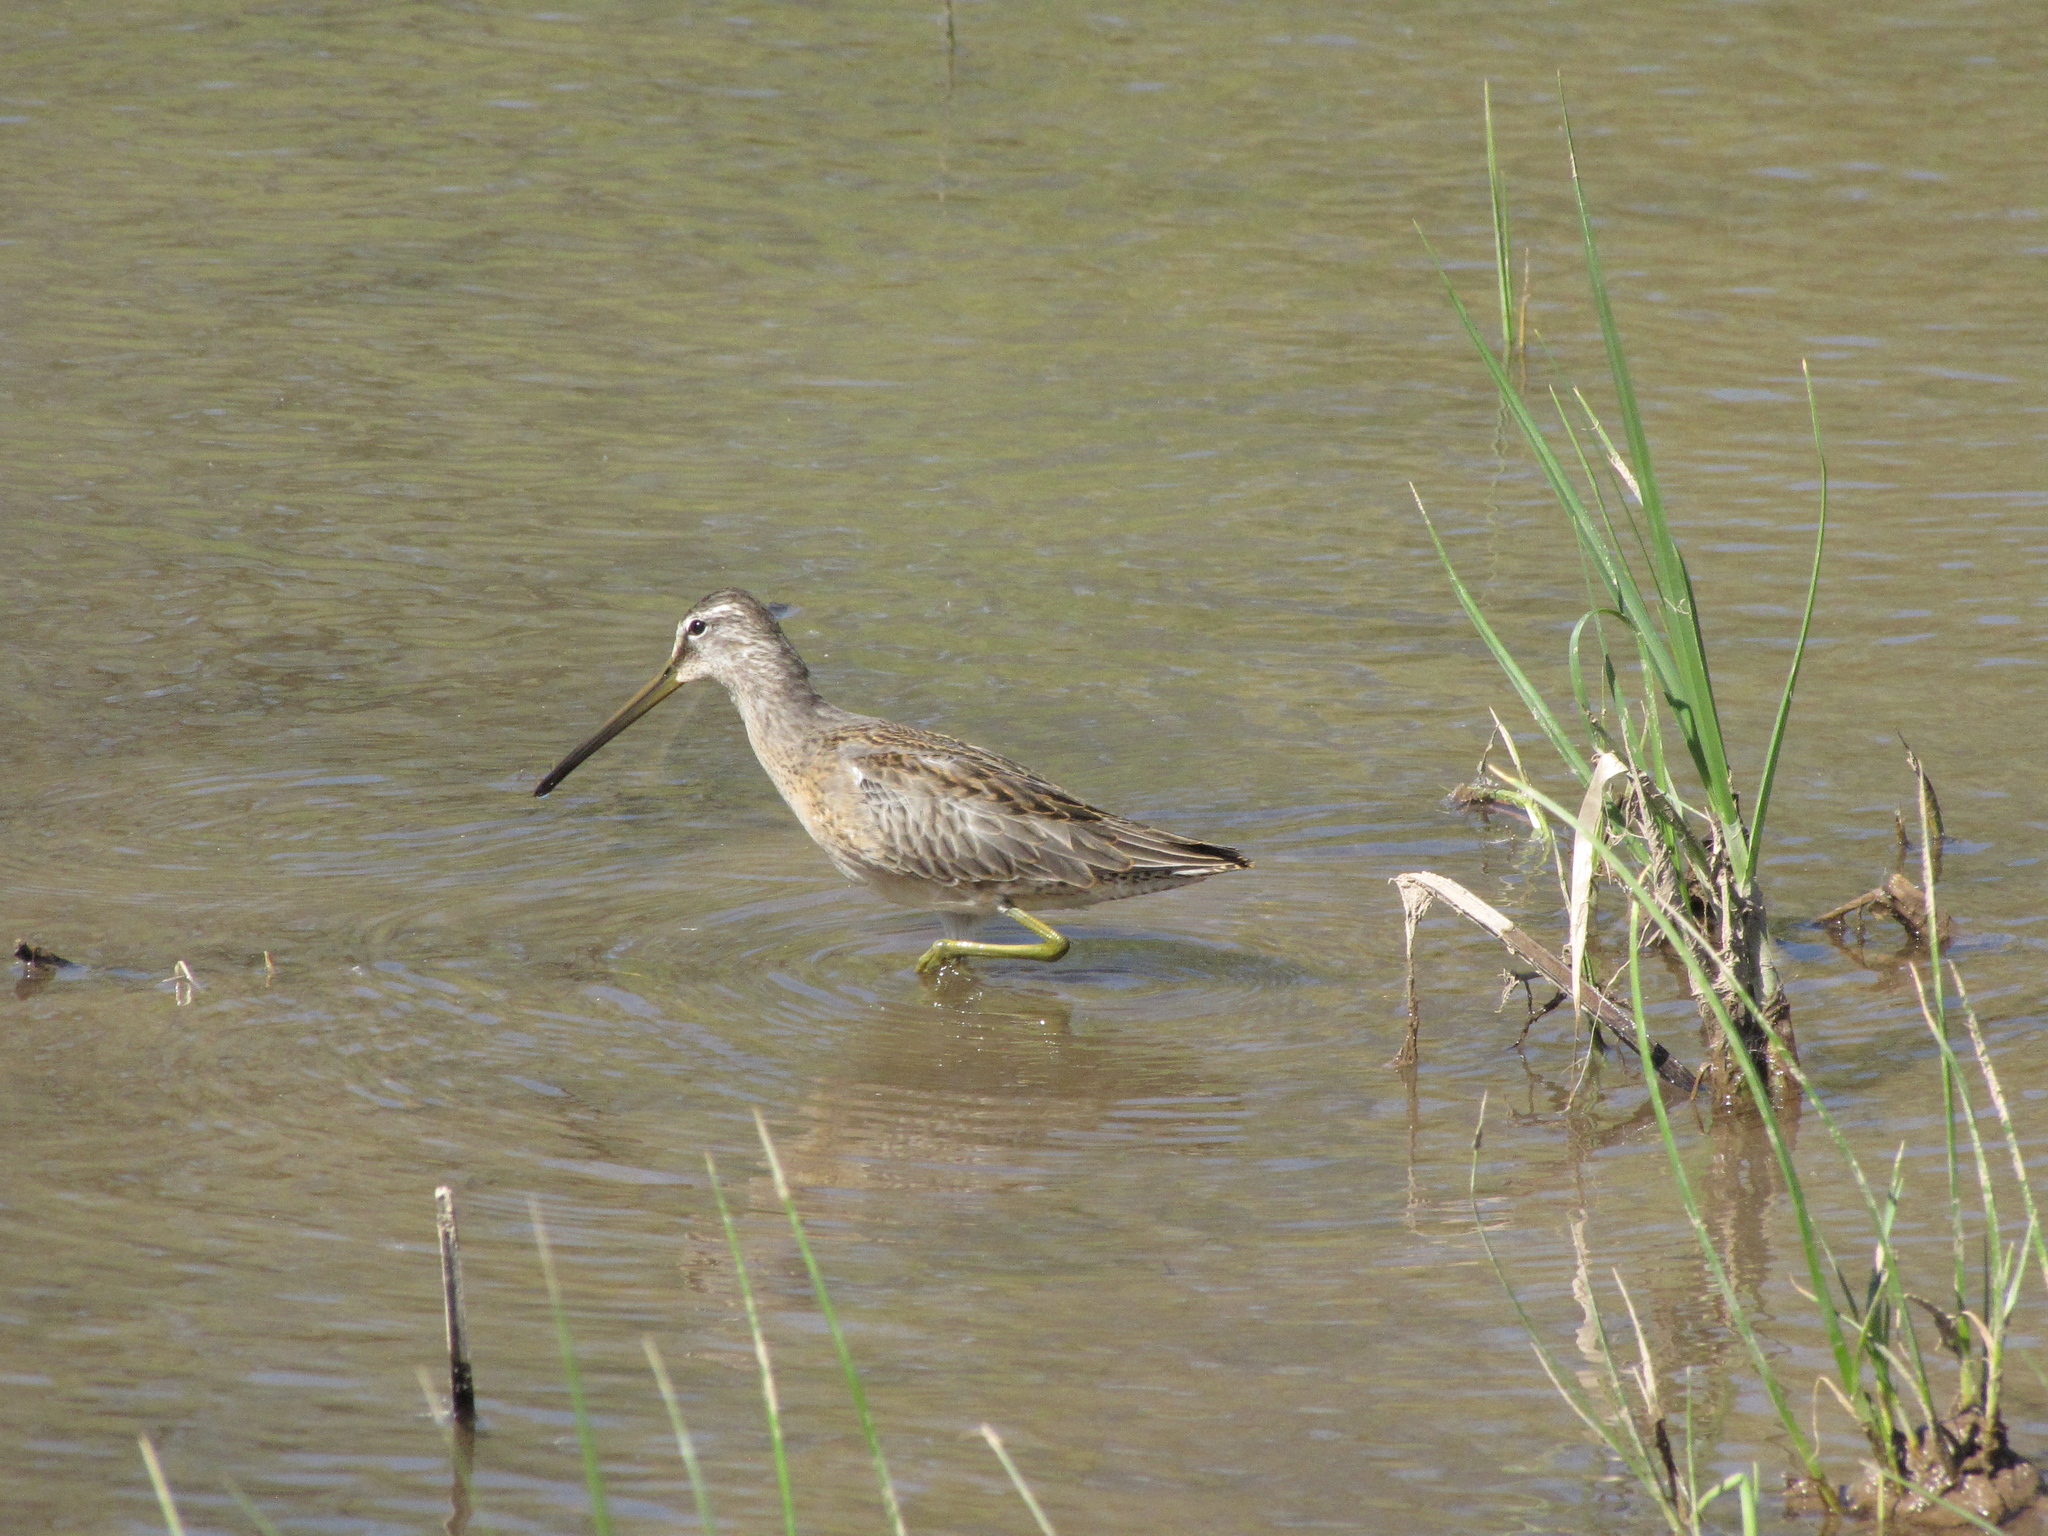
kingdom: Animalia
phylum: Chordata
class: Aves
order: Charadriiformes
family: Scolopacidae
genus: Limnodromus
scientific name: Limnodromus scolopaceus
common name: Long-billed dowitcher
